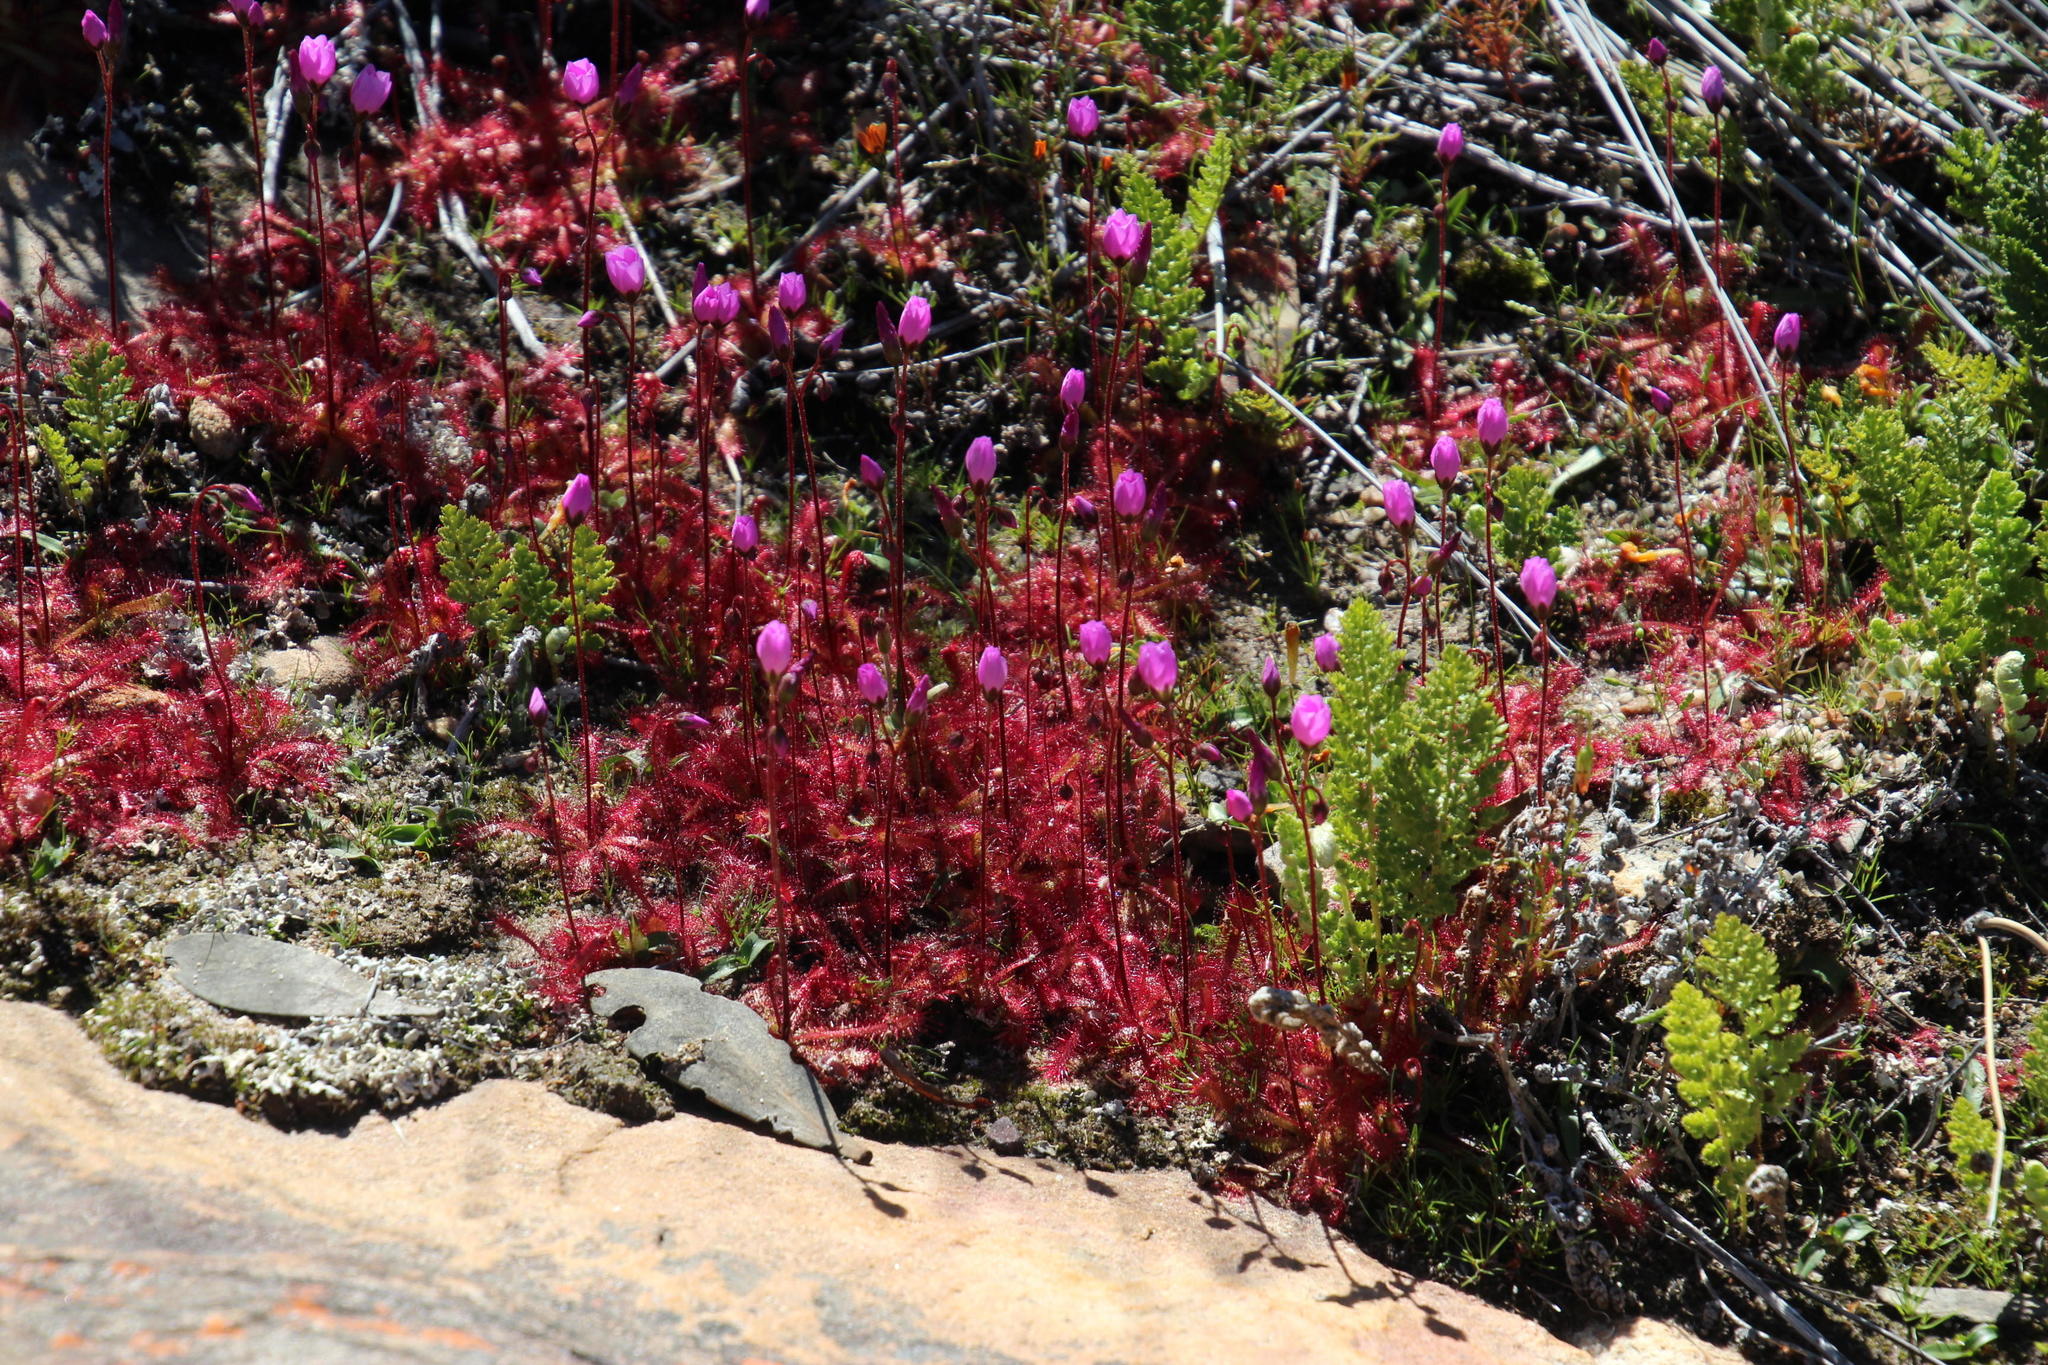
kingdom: Plantae
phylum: Tracheophyta
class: Magnoliopsida
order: Caryophyllales
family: Droseraceae
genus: Drosera
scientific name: Drosera trinervia
